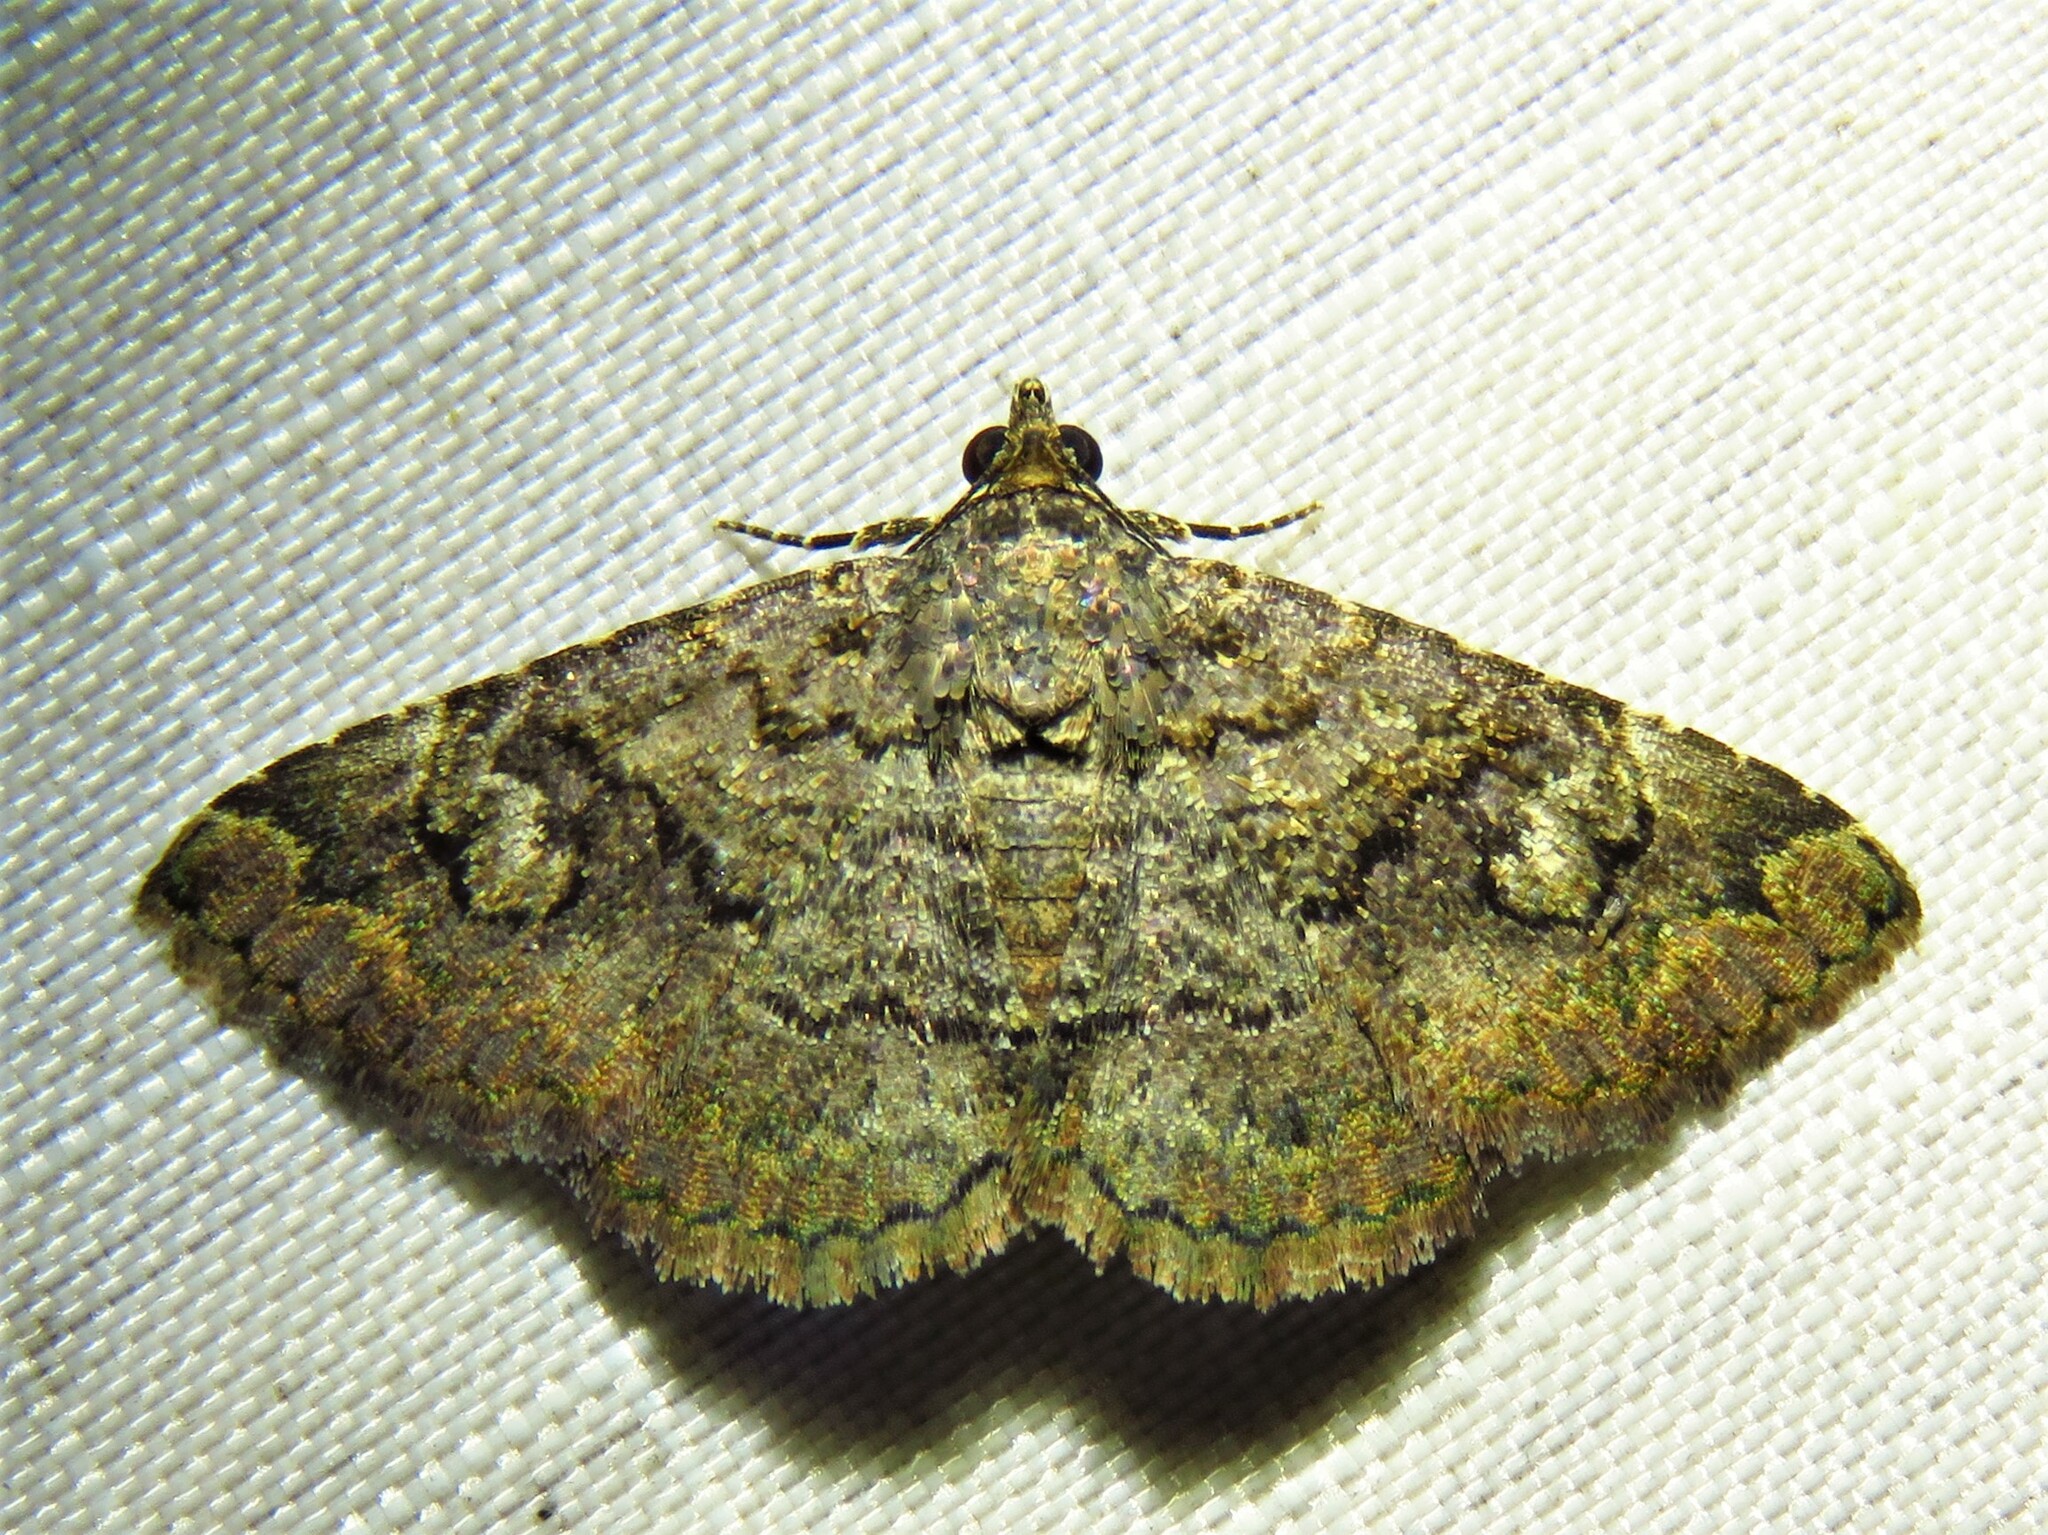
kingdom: Animalia
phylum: Arthropoda
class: Insecta
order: Lepidoptera
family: Erebidae
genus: Toxonprucha
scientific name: Toxonprucha excavata
